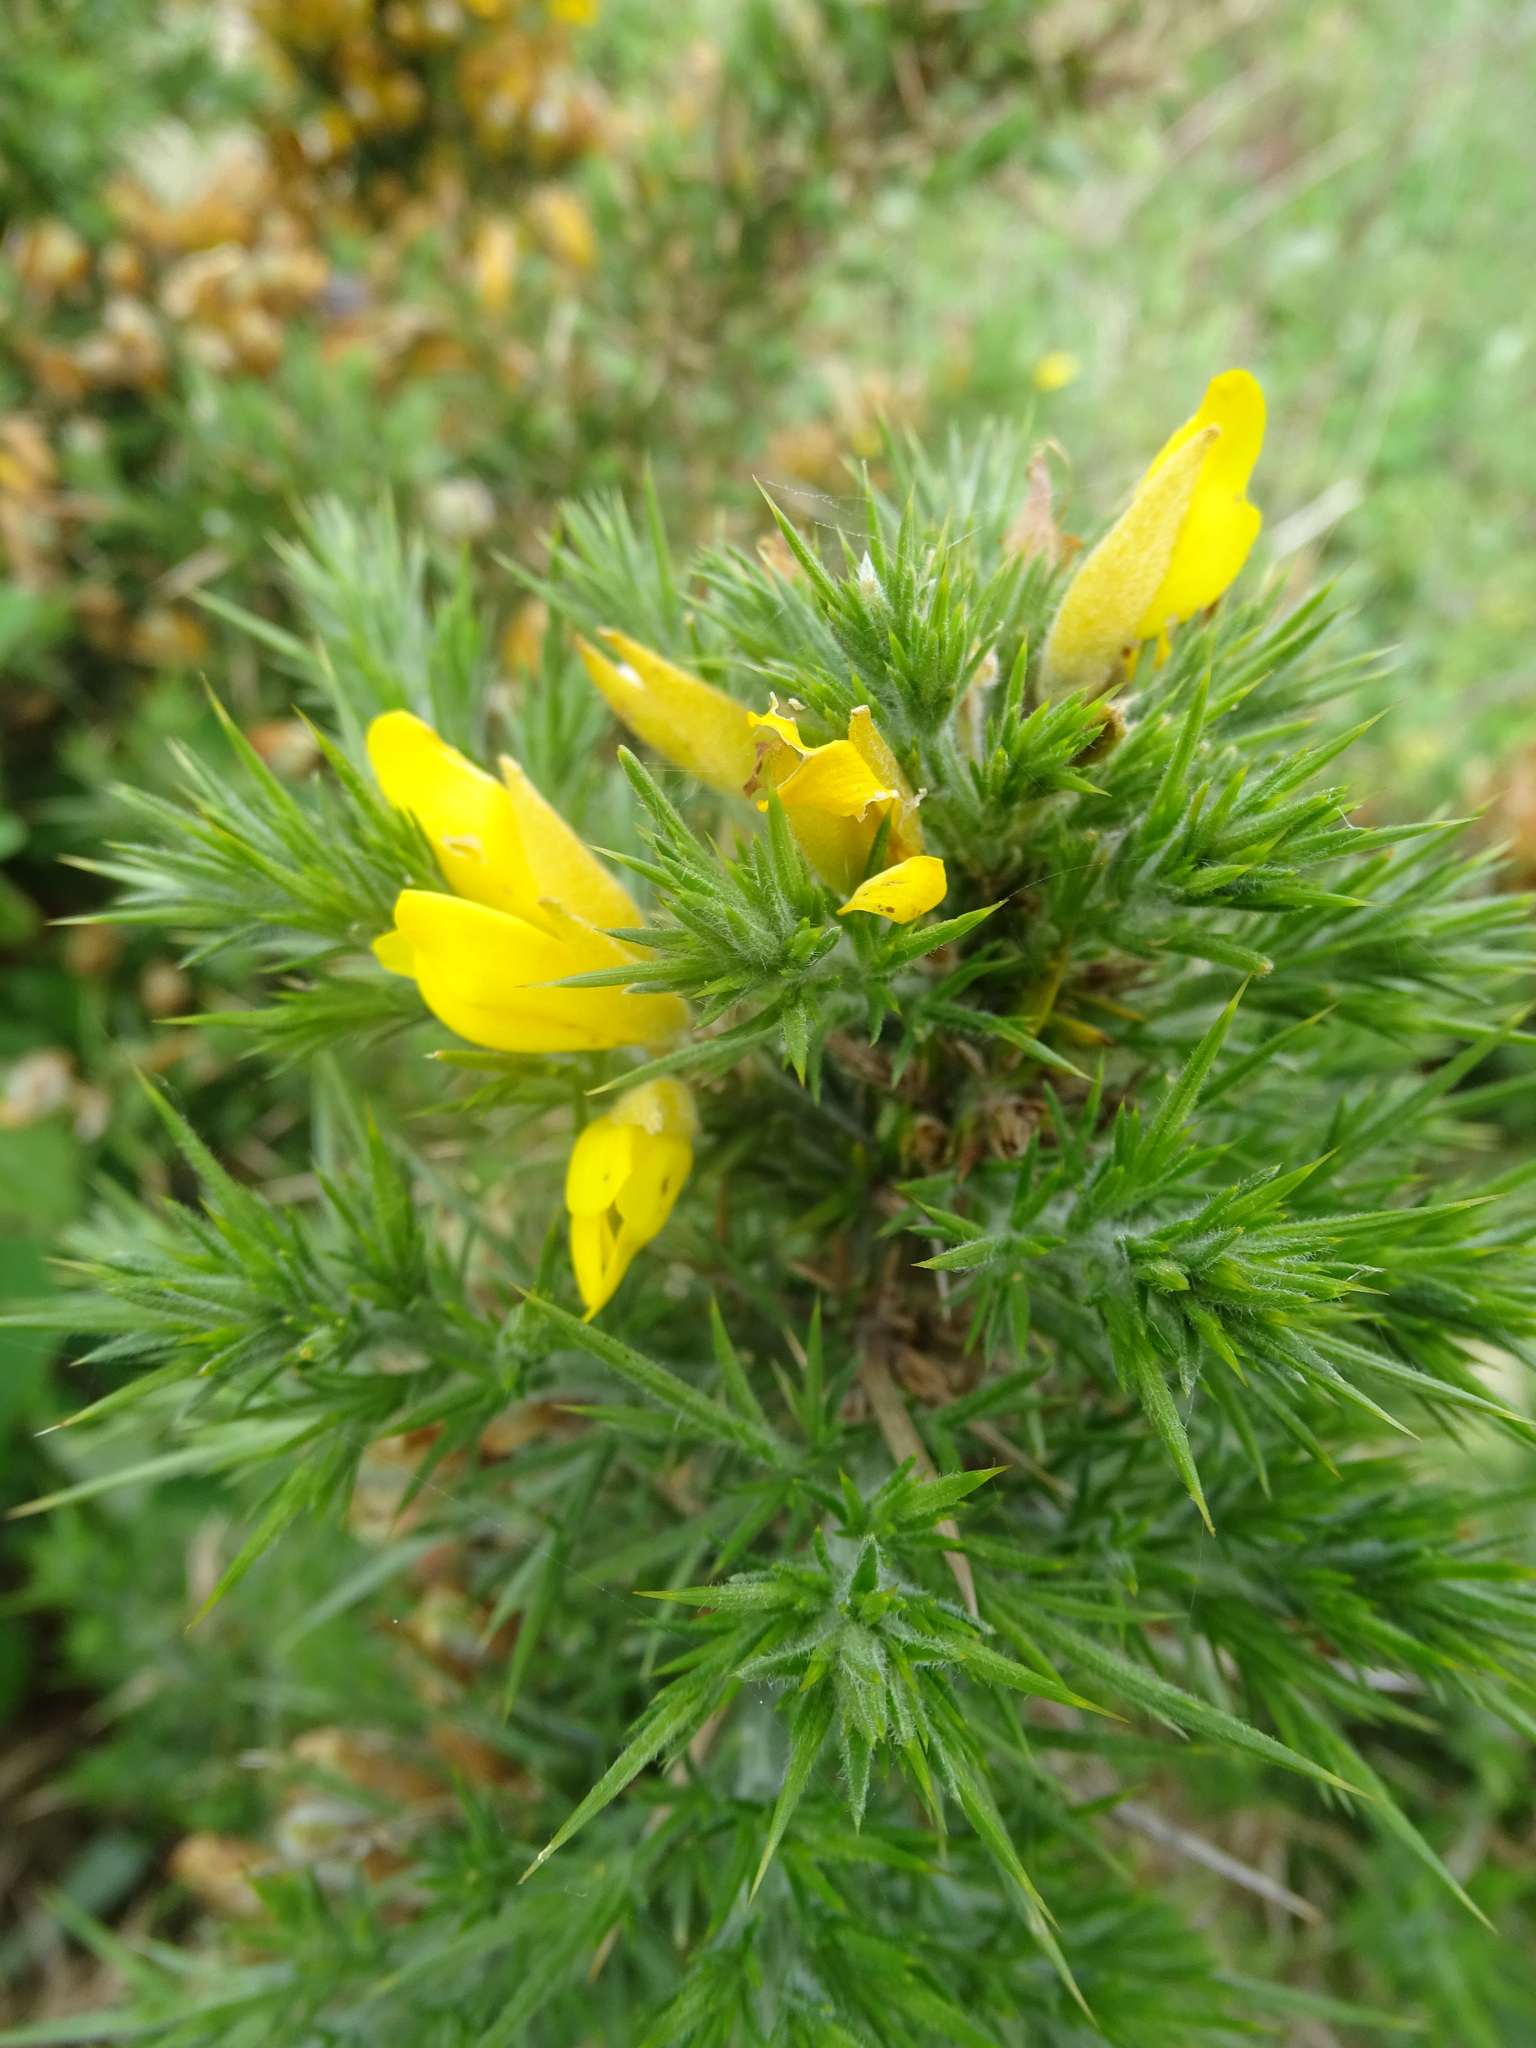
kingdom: Plantae
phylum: Tracheophyta
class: Magnoliopsida
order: Fabales
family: Fabaceae
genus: Ulex
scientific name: Ulex europaeus
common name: Common gorse
